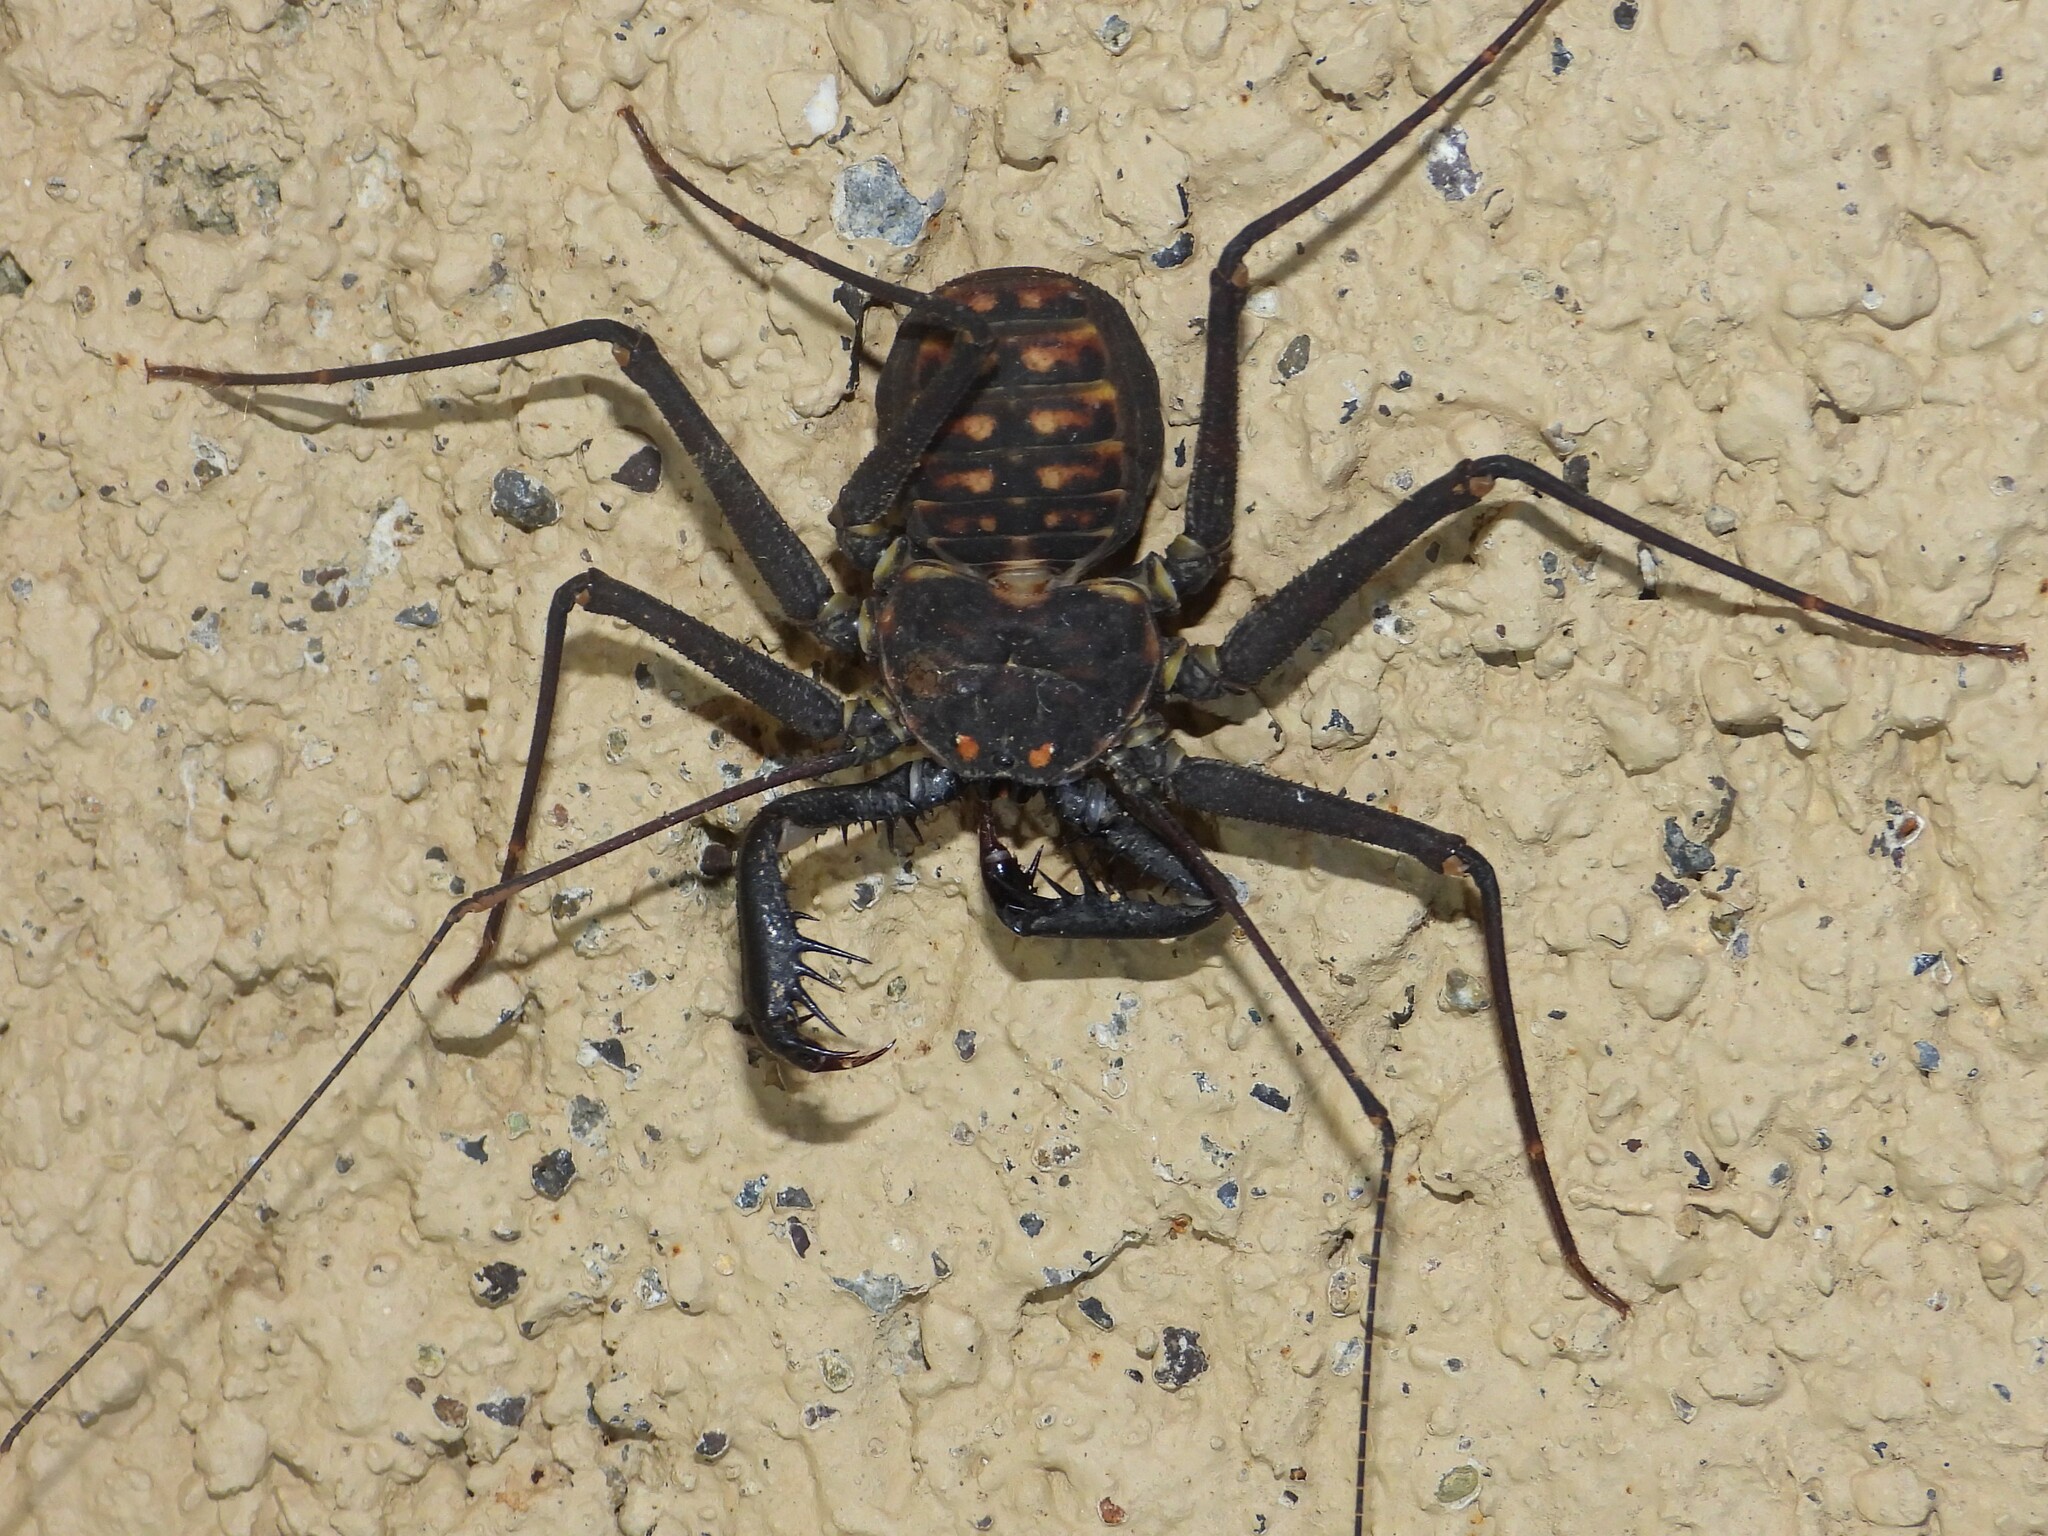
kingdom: Animalia
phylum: Arthropoda
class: Arachnida
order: Amblypygi
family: Phrynidae
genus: Phrynus
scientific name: Phrynus whitei
